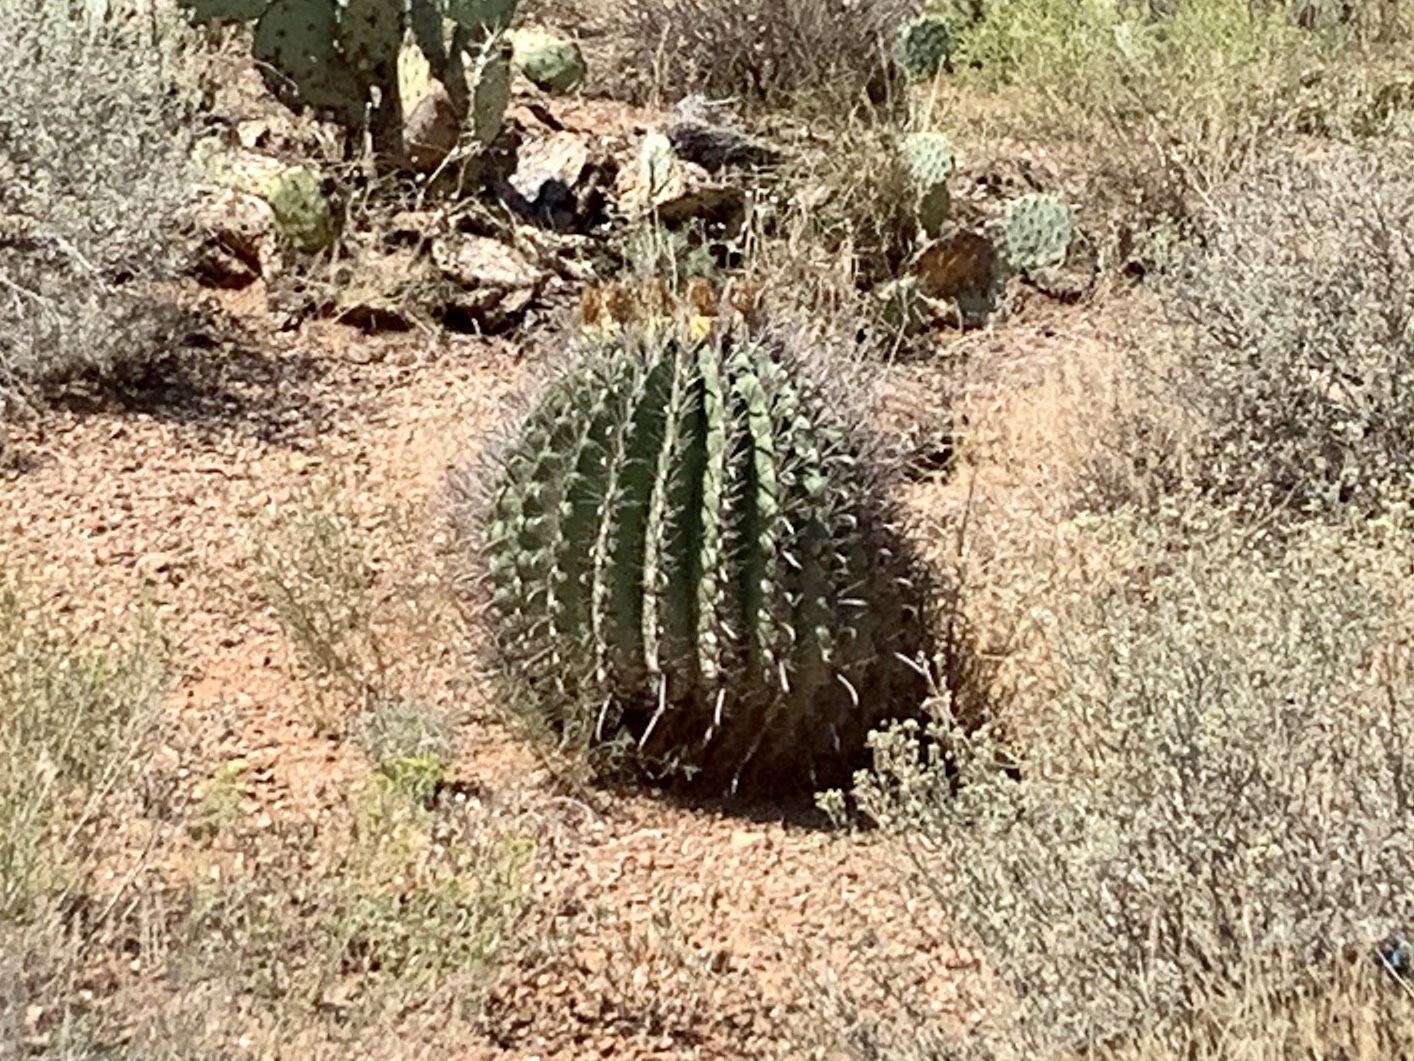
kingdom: Plantae
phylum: Tracheophyta
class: Magnoliopsida
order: Caryophyllales
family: Cactaceae
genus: Ferocactus
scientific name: Ferocactus wislizeni
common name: Candy barrel cactus
